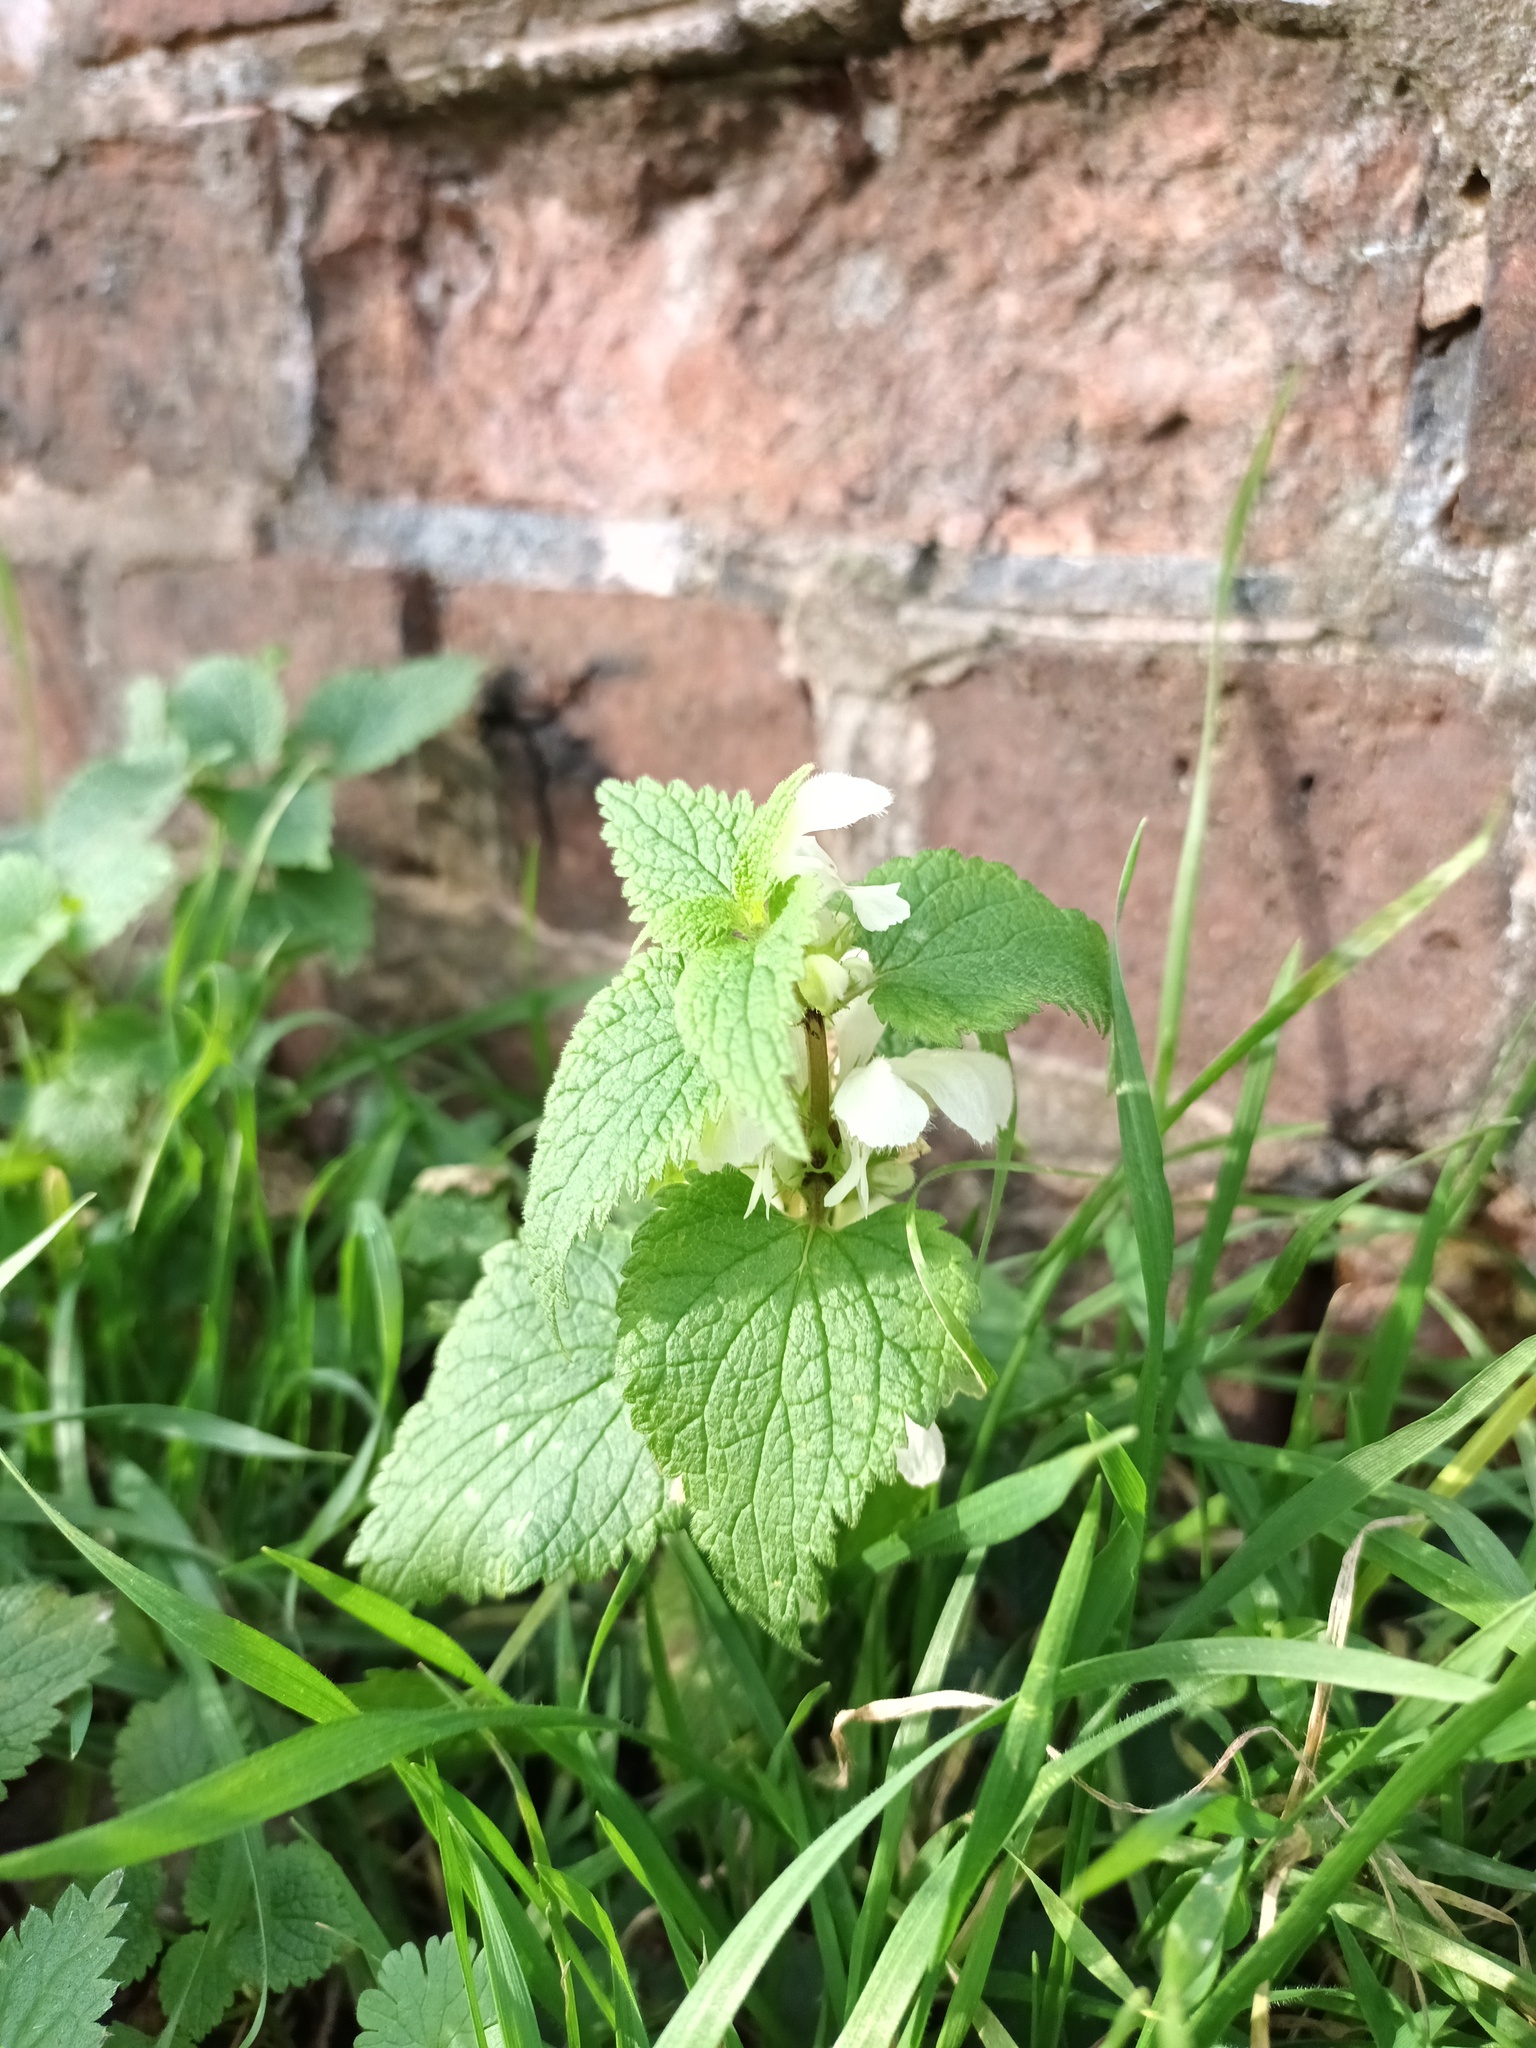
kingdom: Plantae
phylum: Tracheophyta
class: Magnoliopsida
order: Lamiales
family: Lamiaceae
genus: Lamium
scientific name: Lamium album
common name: White dead-nettle
